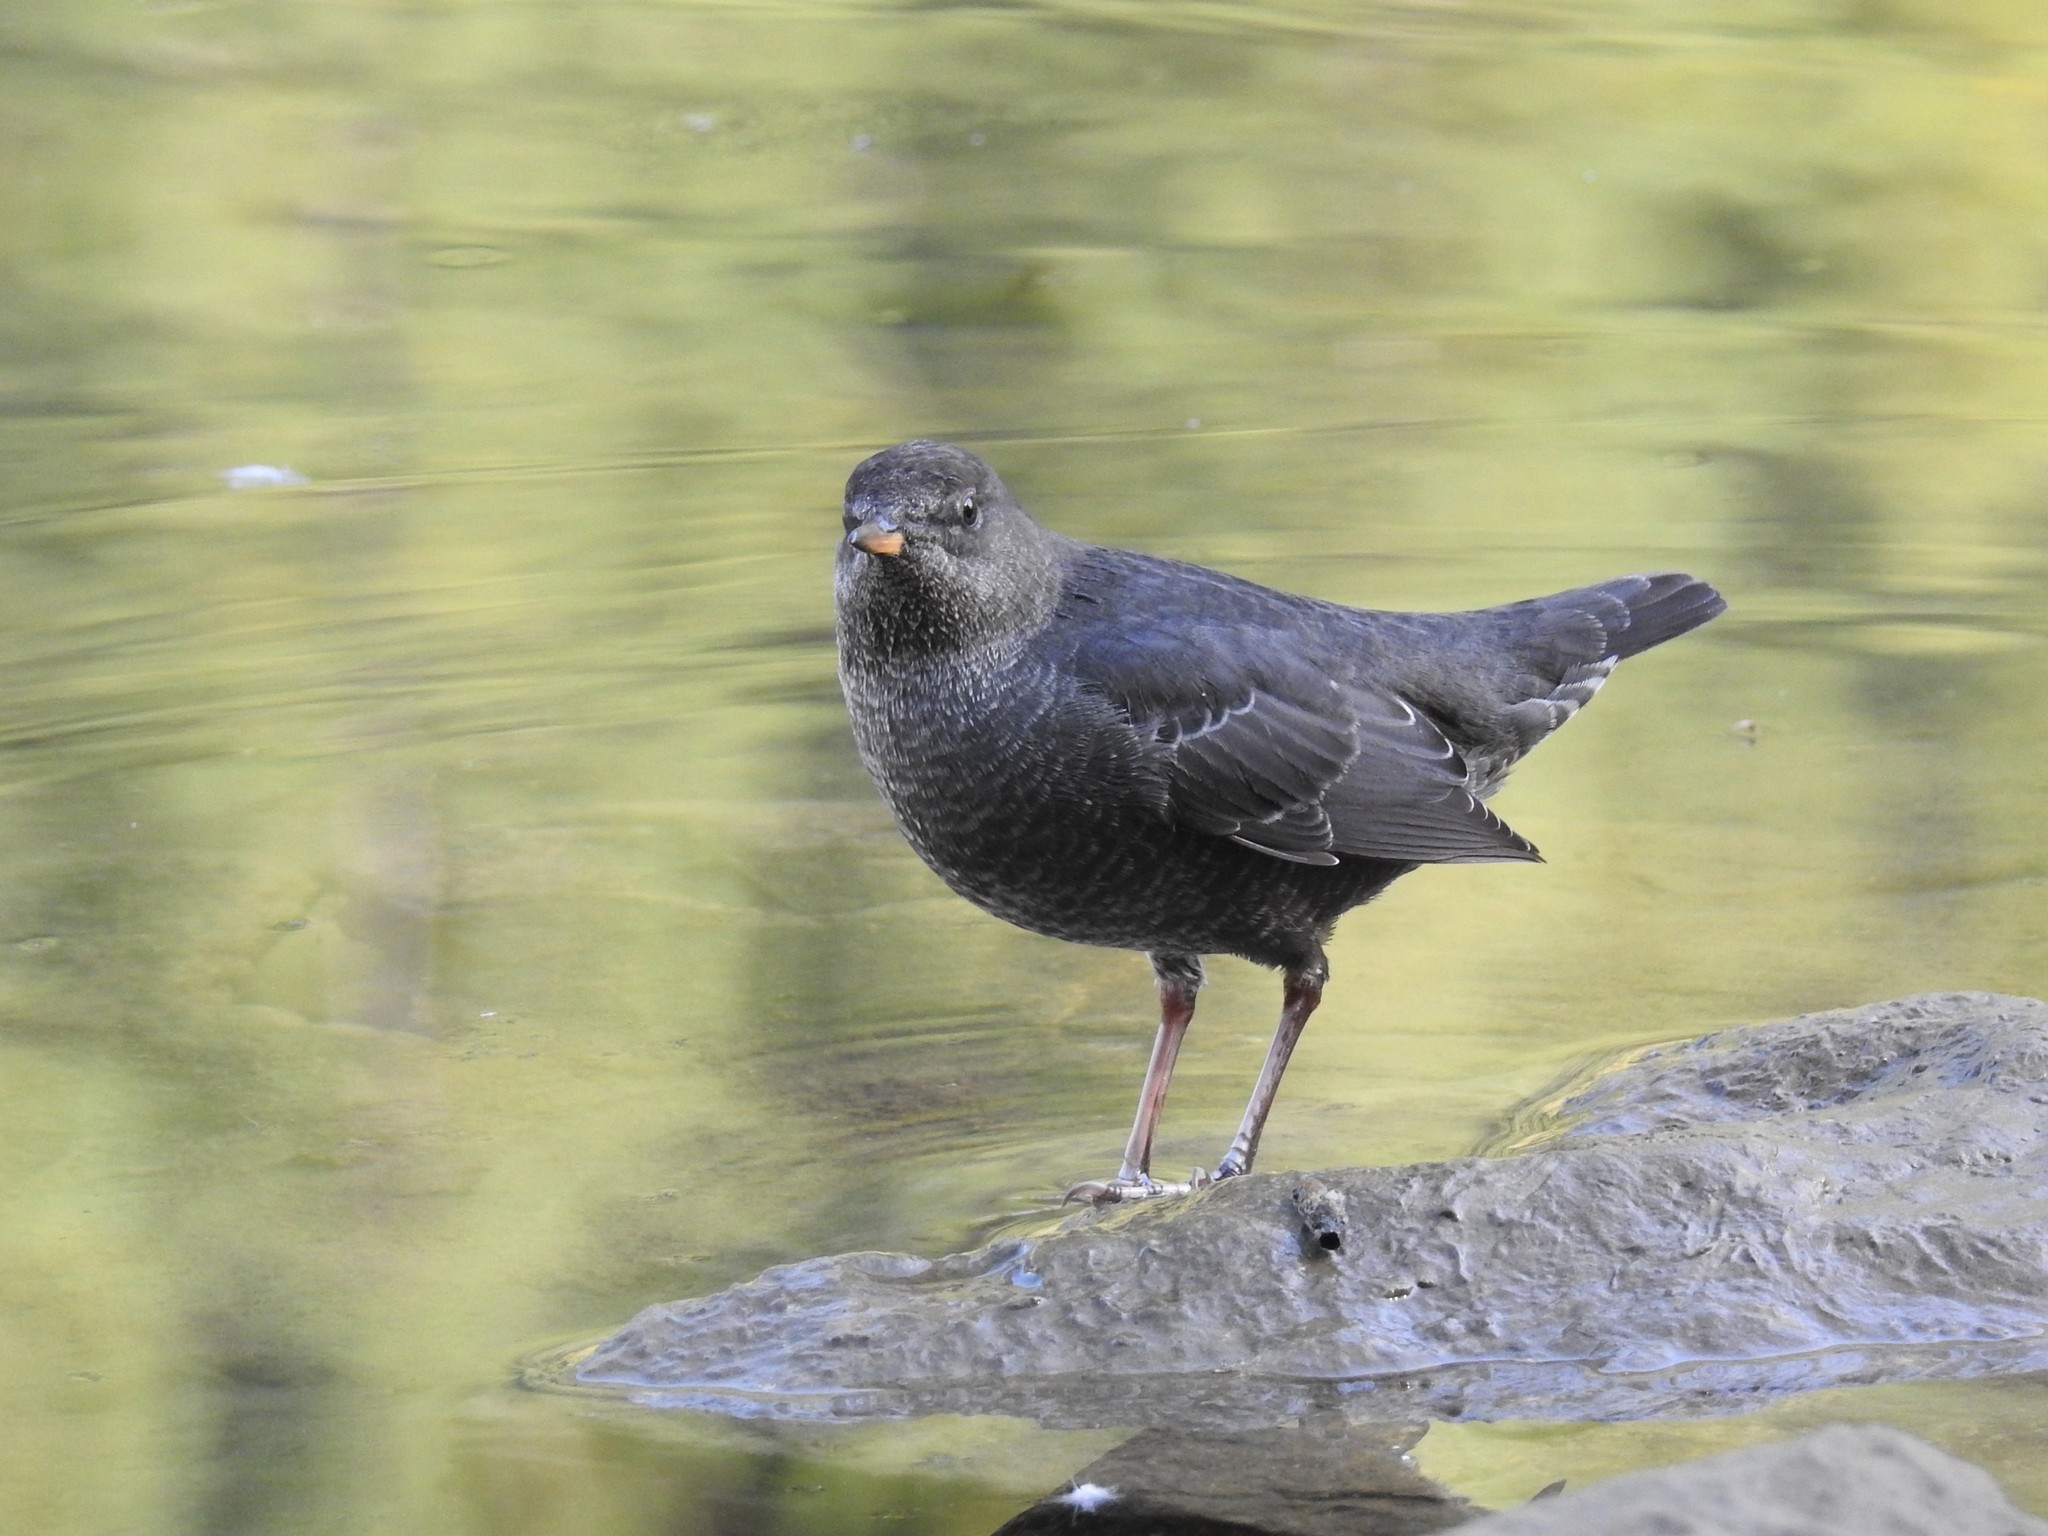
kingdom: Animalia
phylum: Chordata
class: Aves
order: Passeriformes
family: Cinclidae
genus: Cinclus
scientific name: Cinclus mexicanus
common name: American dipper
